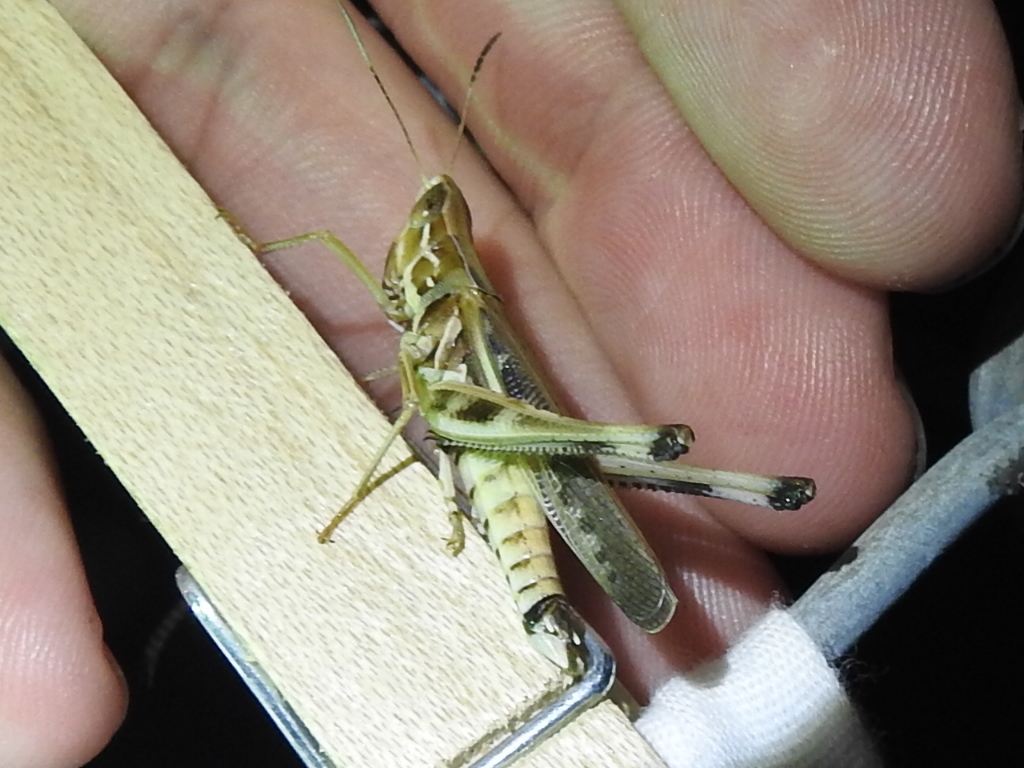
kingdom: Animalia
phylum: Arthropoda
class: Insecta
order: Orthoptera
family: Acrididae
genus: Syrbula
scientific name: Syrbula admirabilis
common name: Handsome grasshopper
